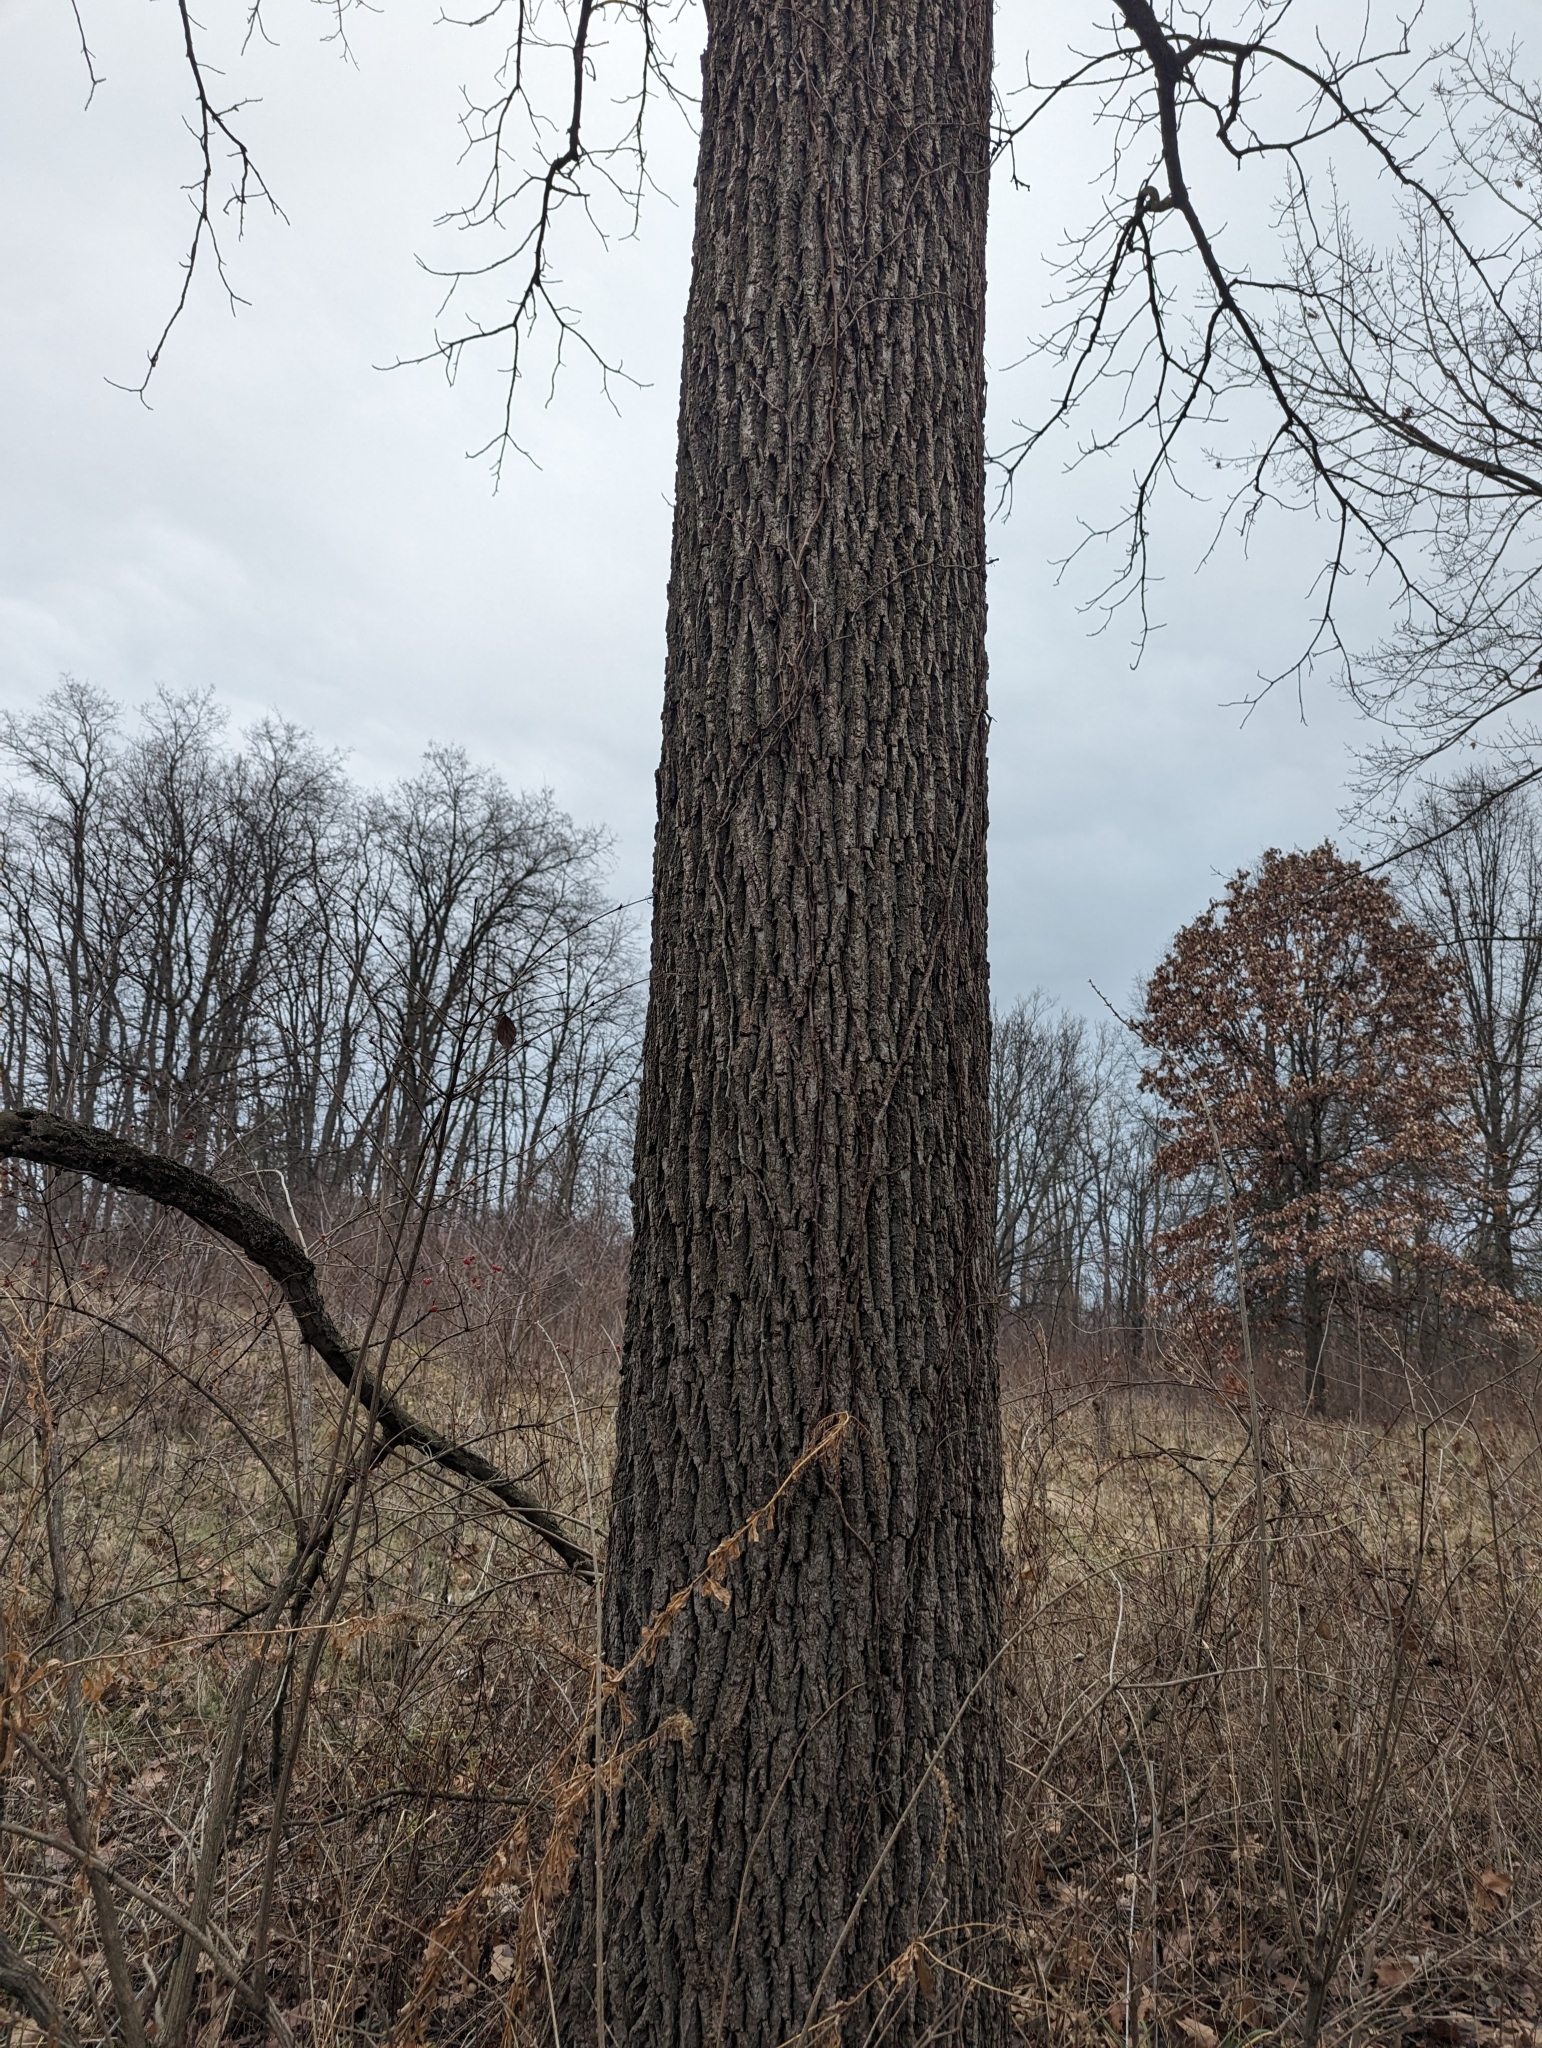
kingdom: Plantae
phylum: Tracheophyta
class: Magnoliopsida
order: Fagales
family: Juglandaceae
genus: Juglans
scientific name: Juglans nigra
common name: Black walnut
